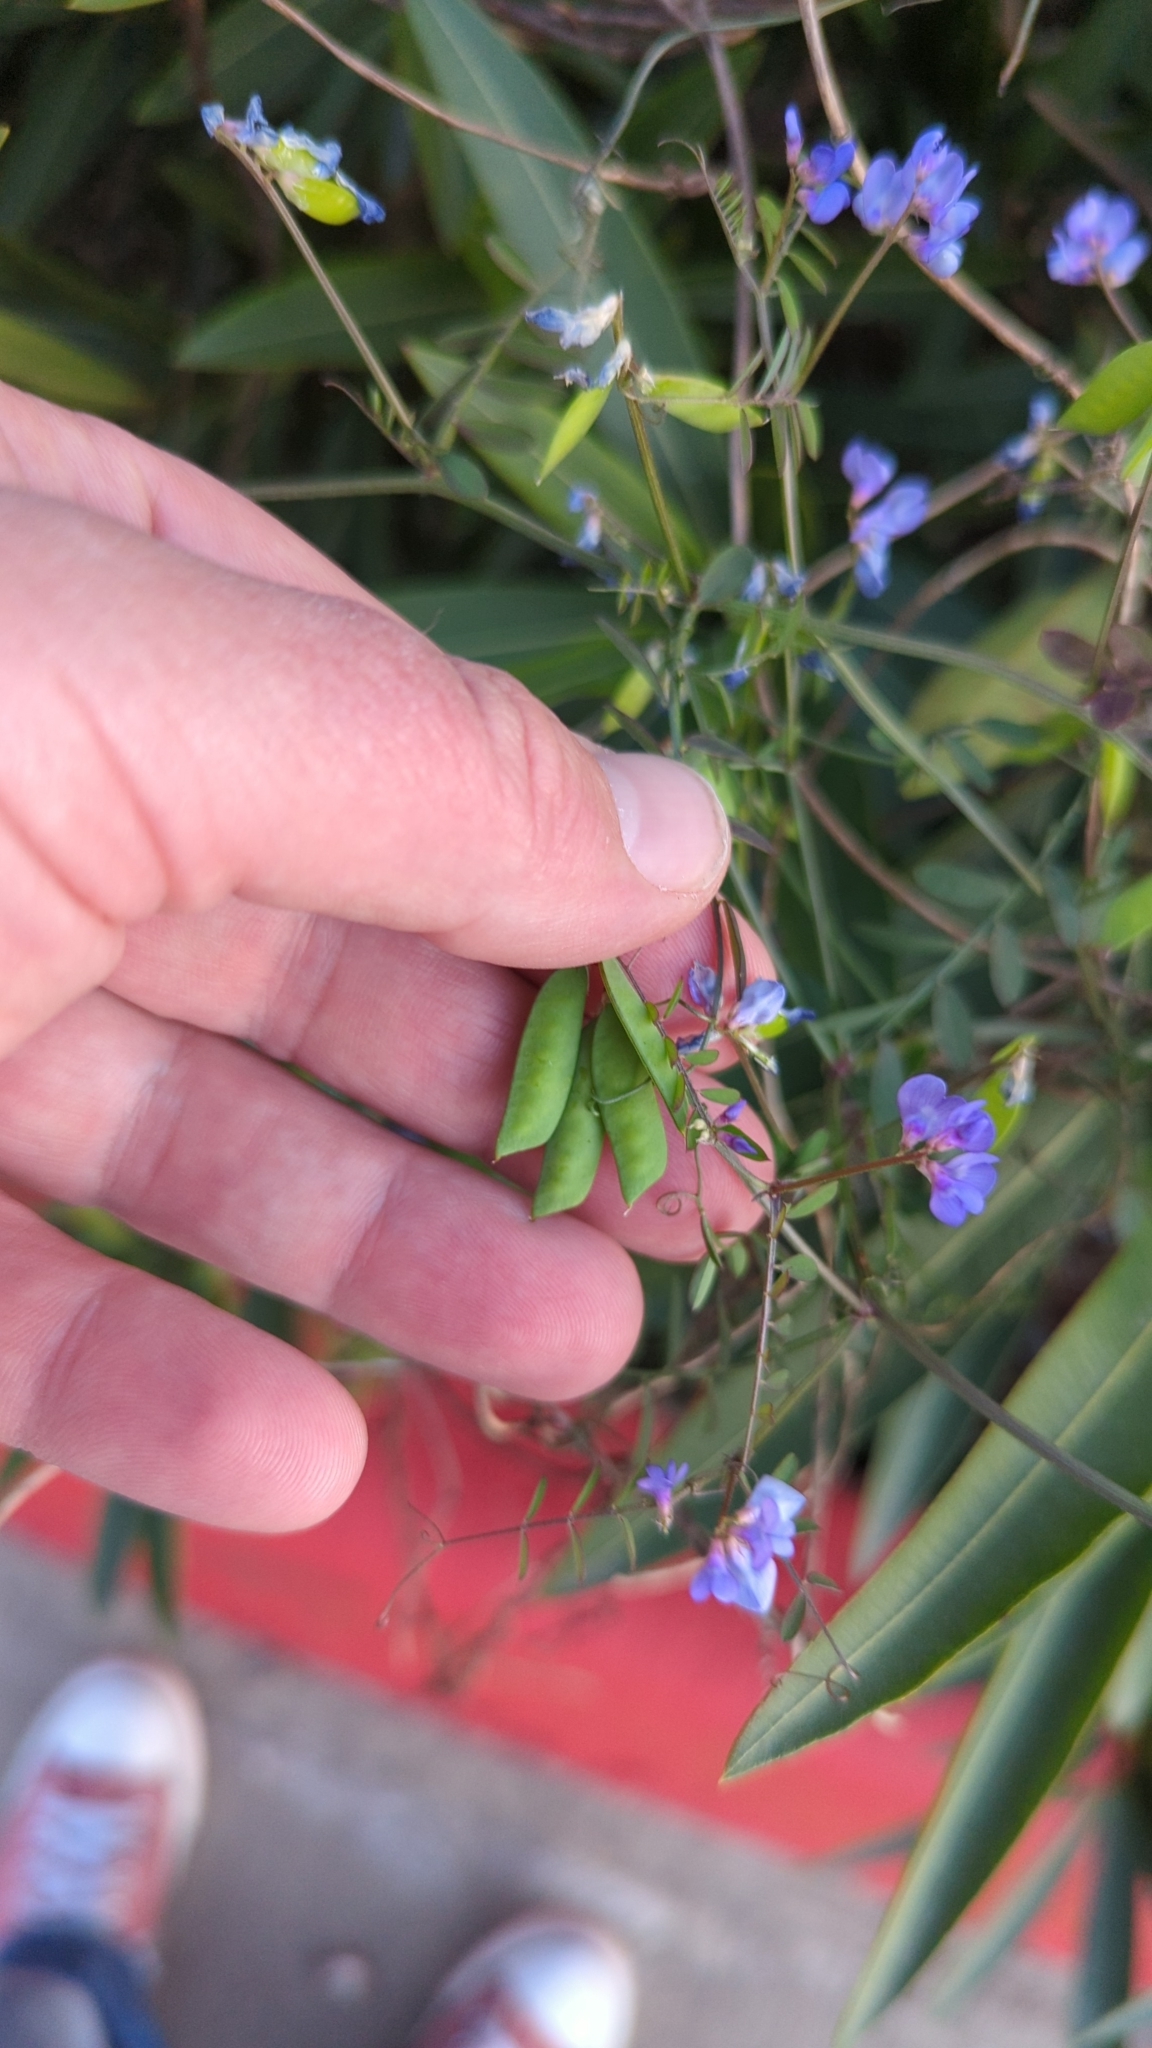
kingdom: Plantae
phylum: Tracheophyta
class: Magnoliopsida
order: Fabales
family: Fabaceae
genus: Vicia
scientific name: Vicia ludoviciana
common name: Louisiana vetch
